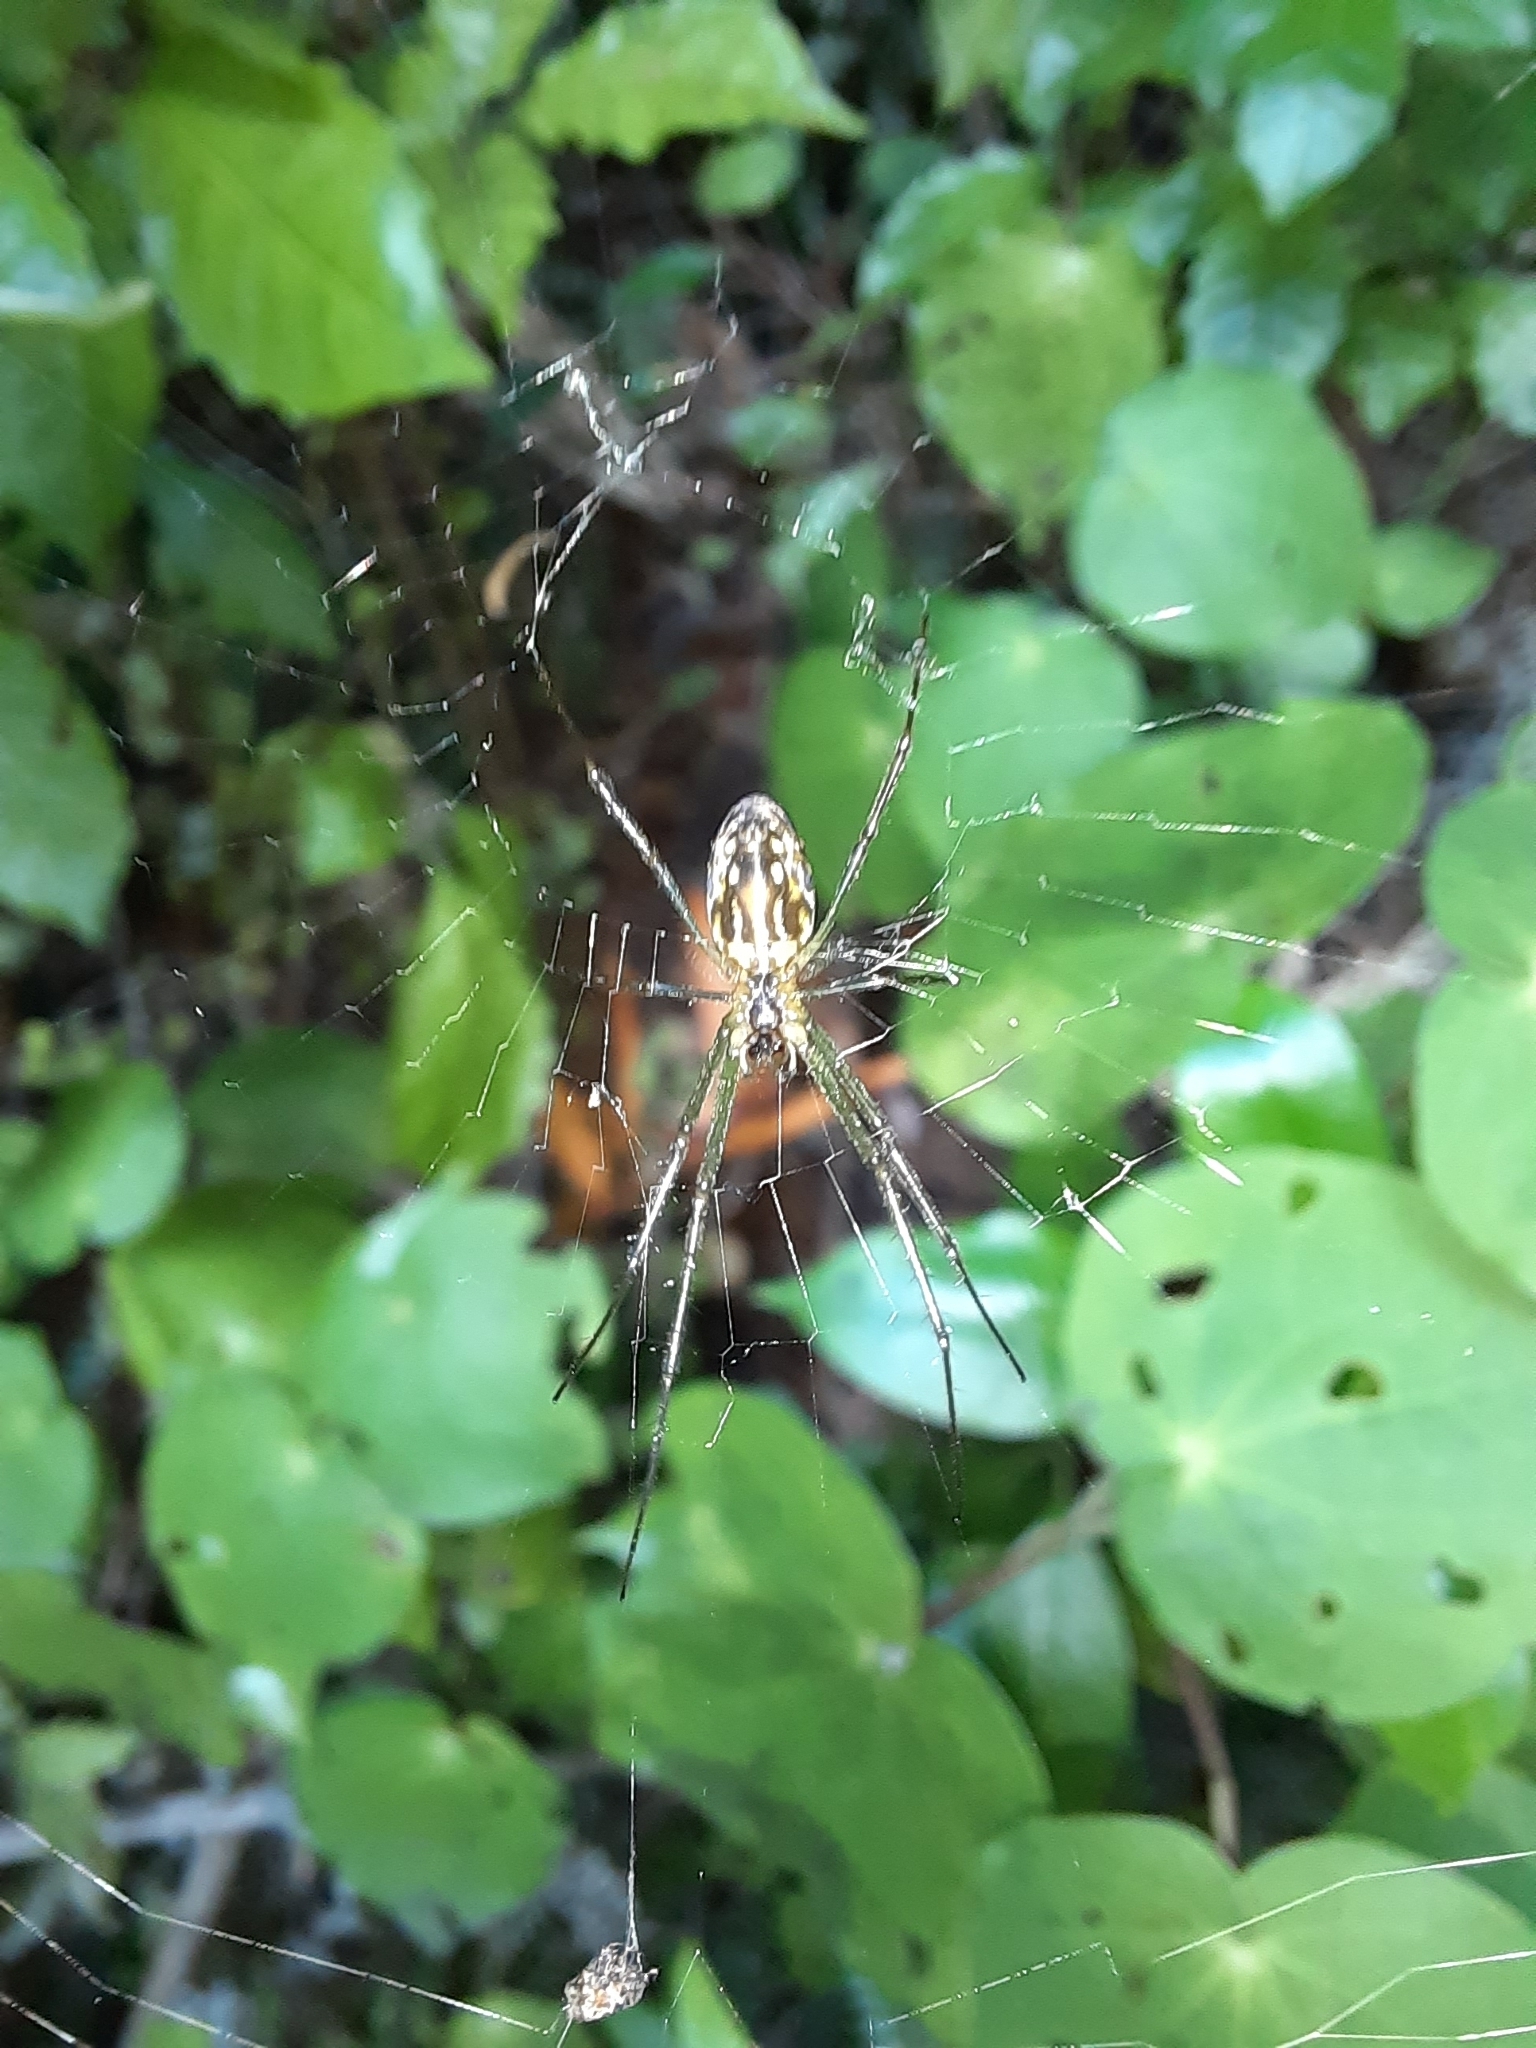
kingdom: Animalia
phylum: Arthropoda
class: Arachnida
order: Araneae
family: Tetragnathidae
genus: Leucauge
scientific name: Leucauge dromedaria
